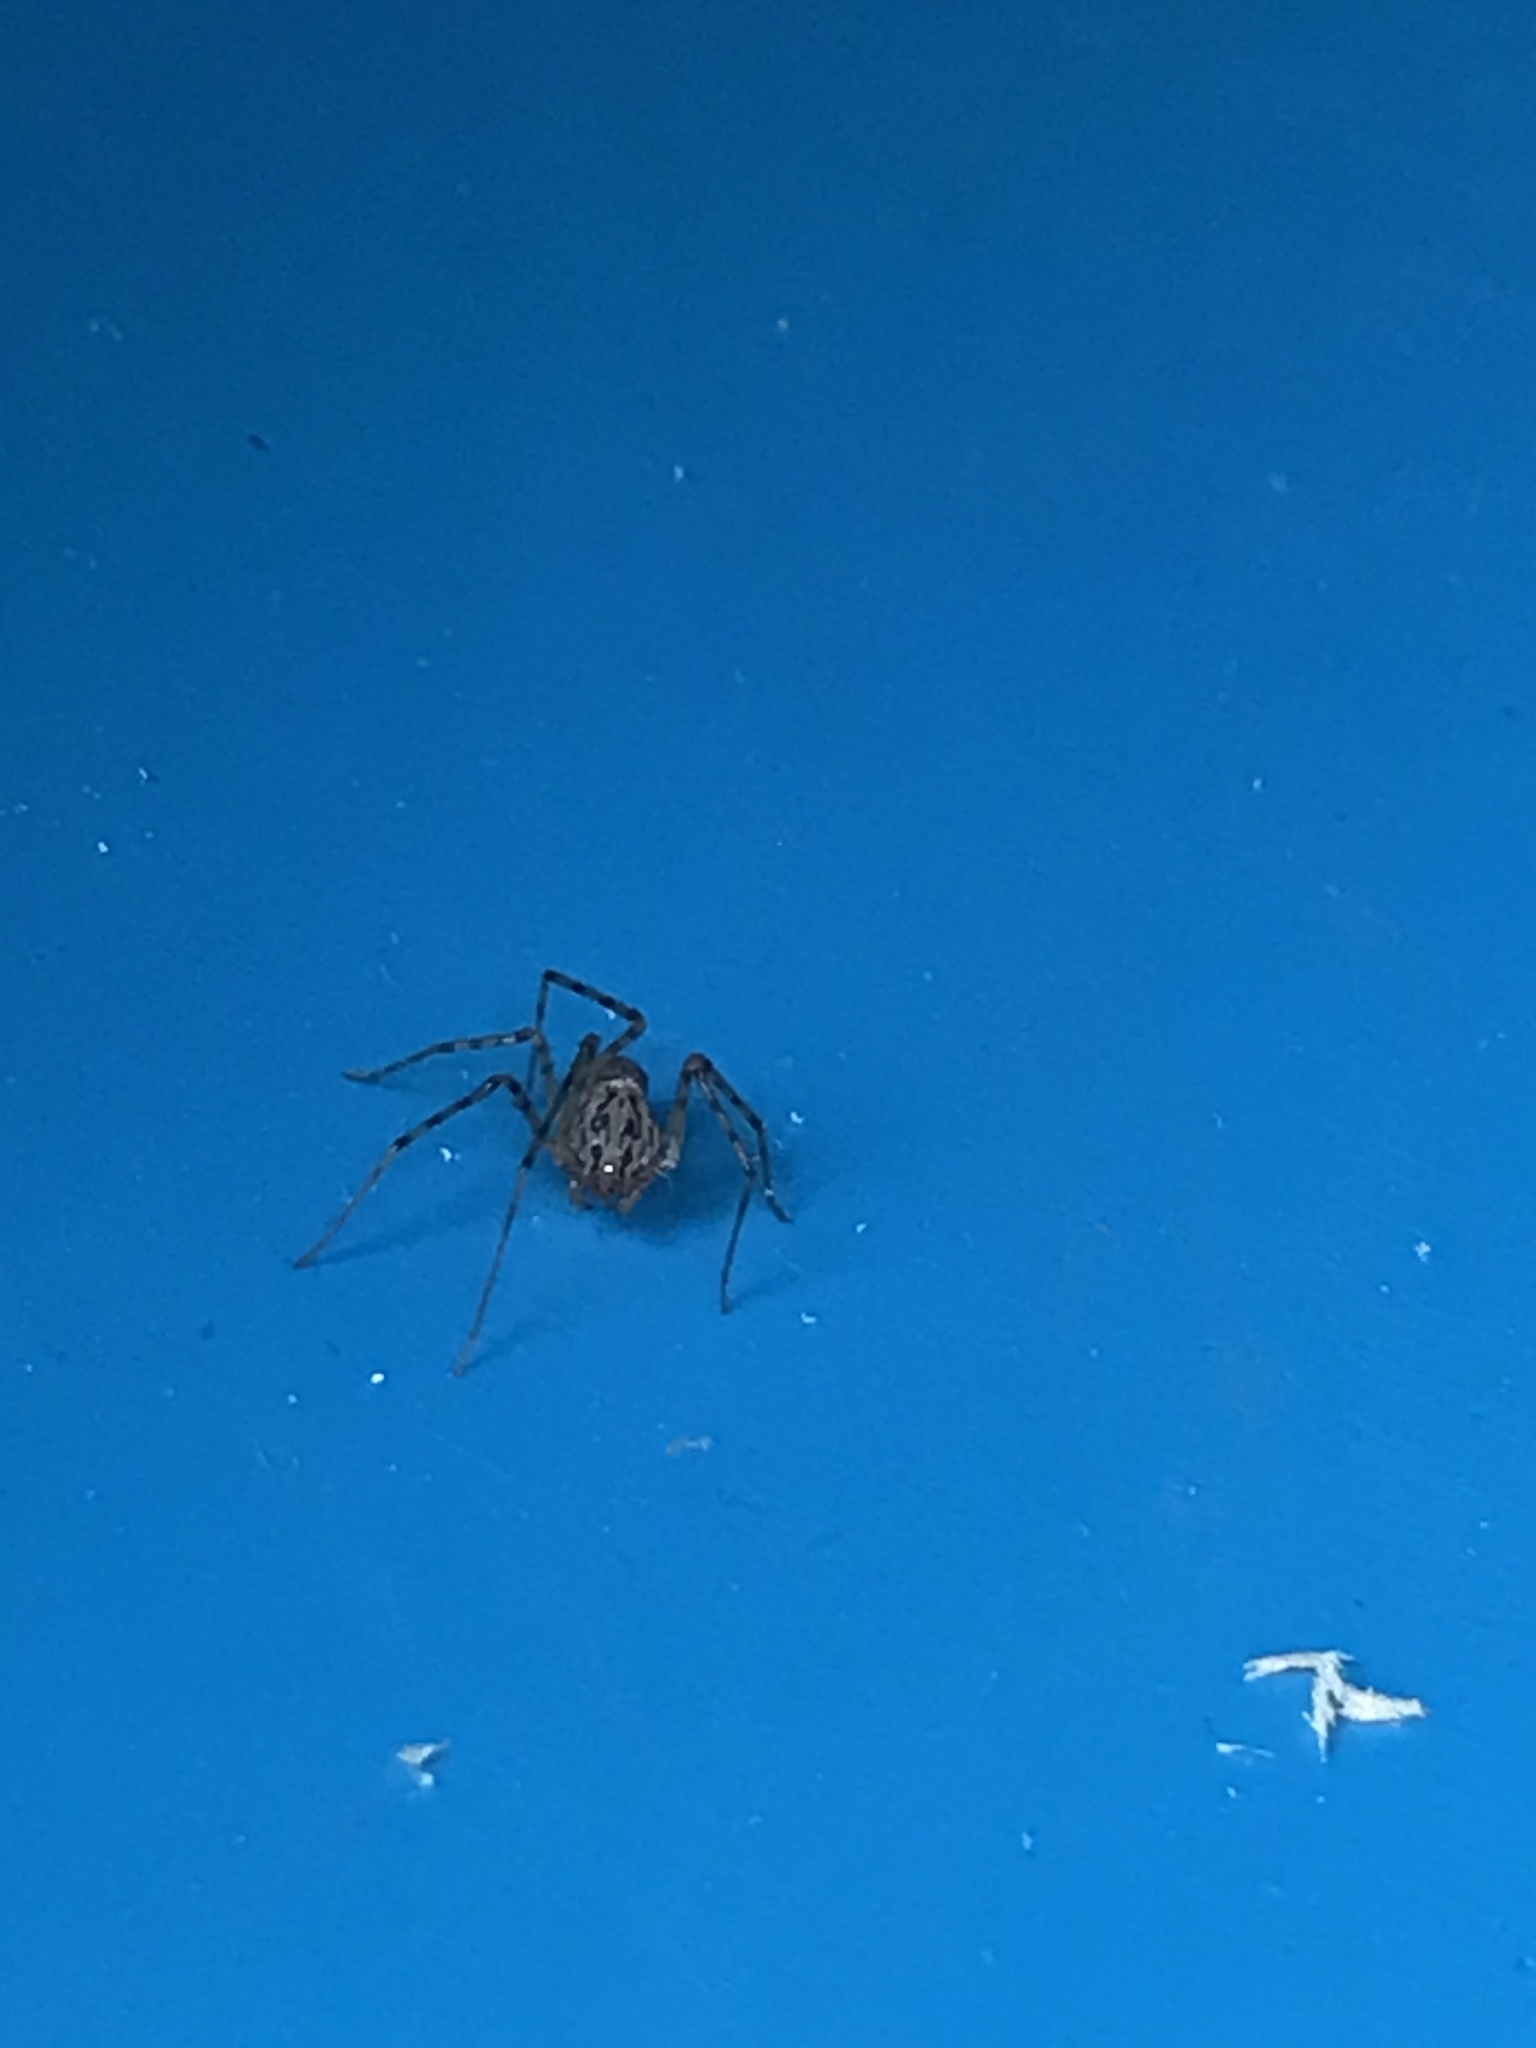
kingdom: Animalia
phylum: Arthropoda
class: Arachnida
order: Araneae
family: Scytodidae
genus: Scytodes
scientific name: Scytodes thoracica
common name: Spitting spider
